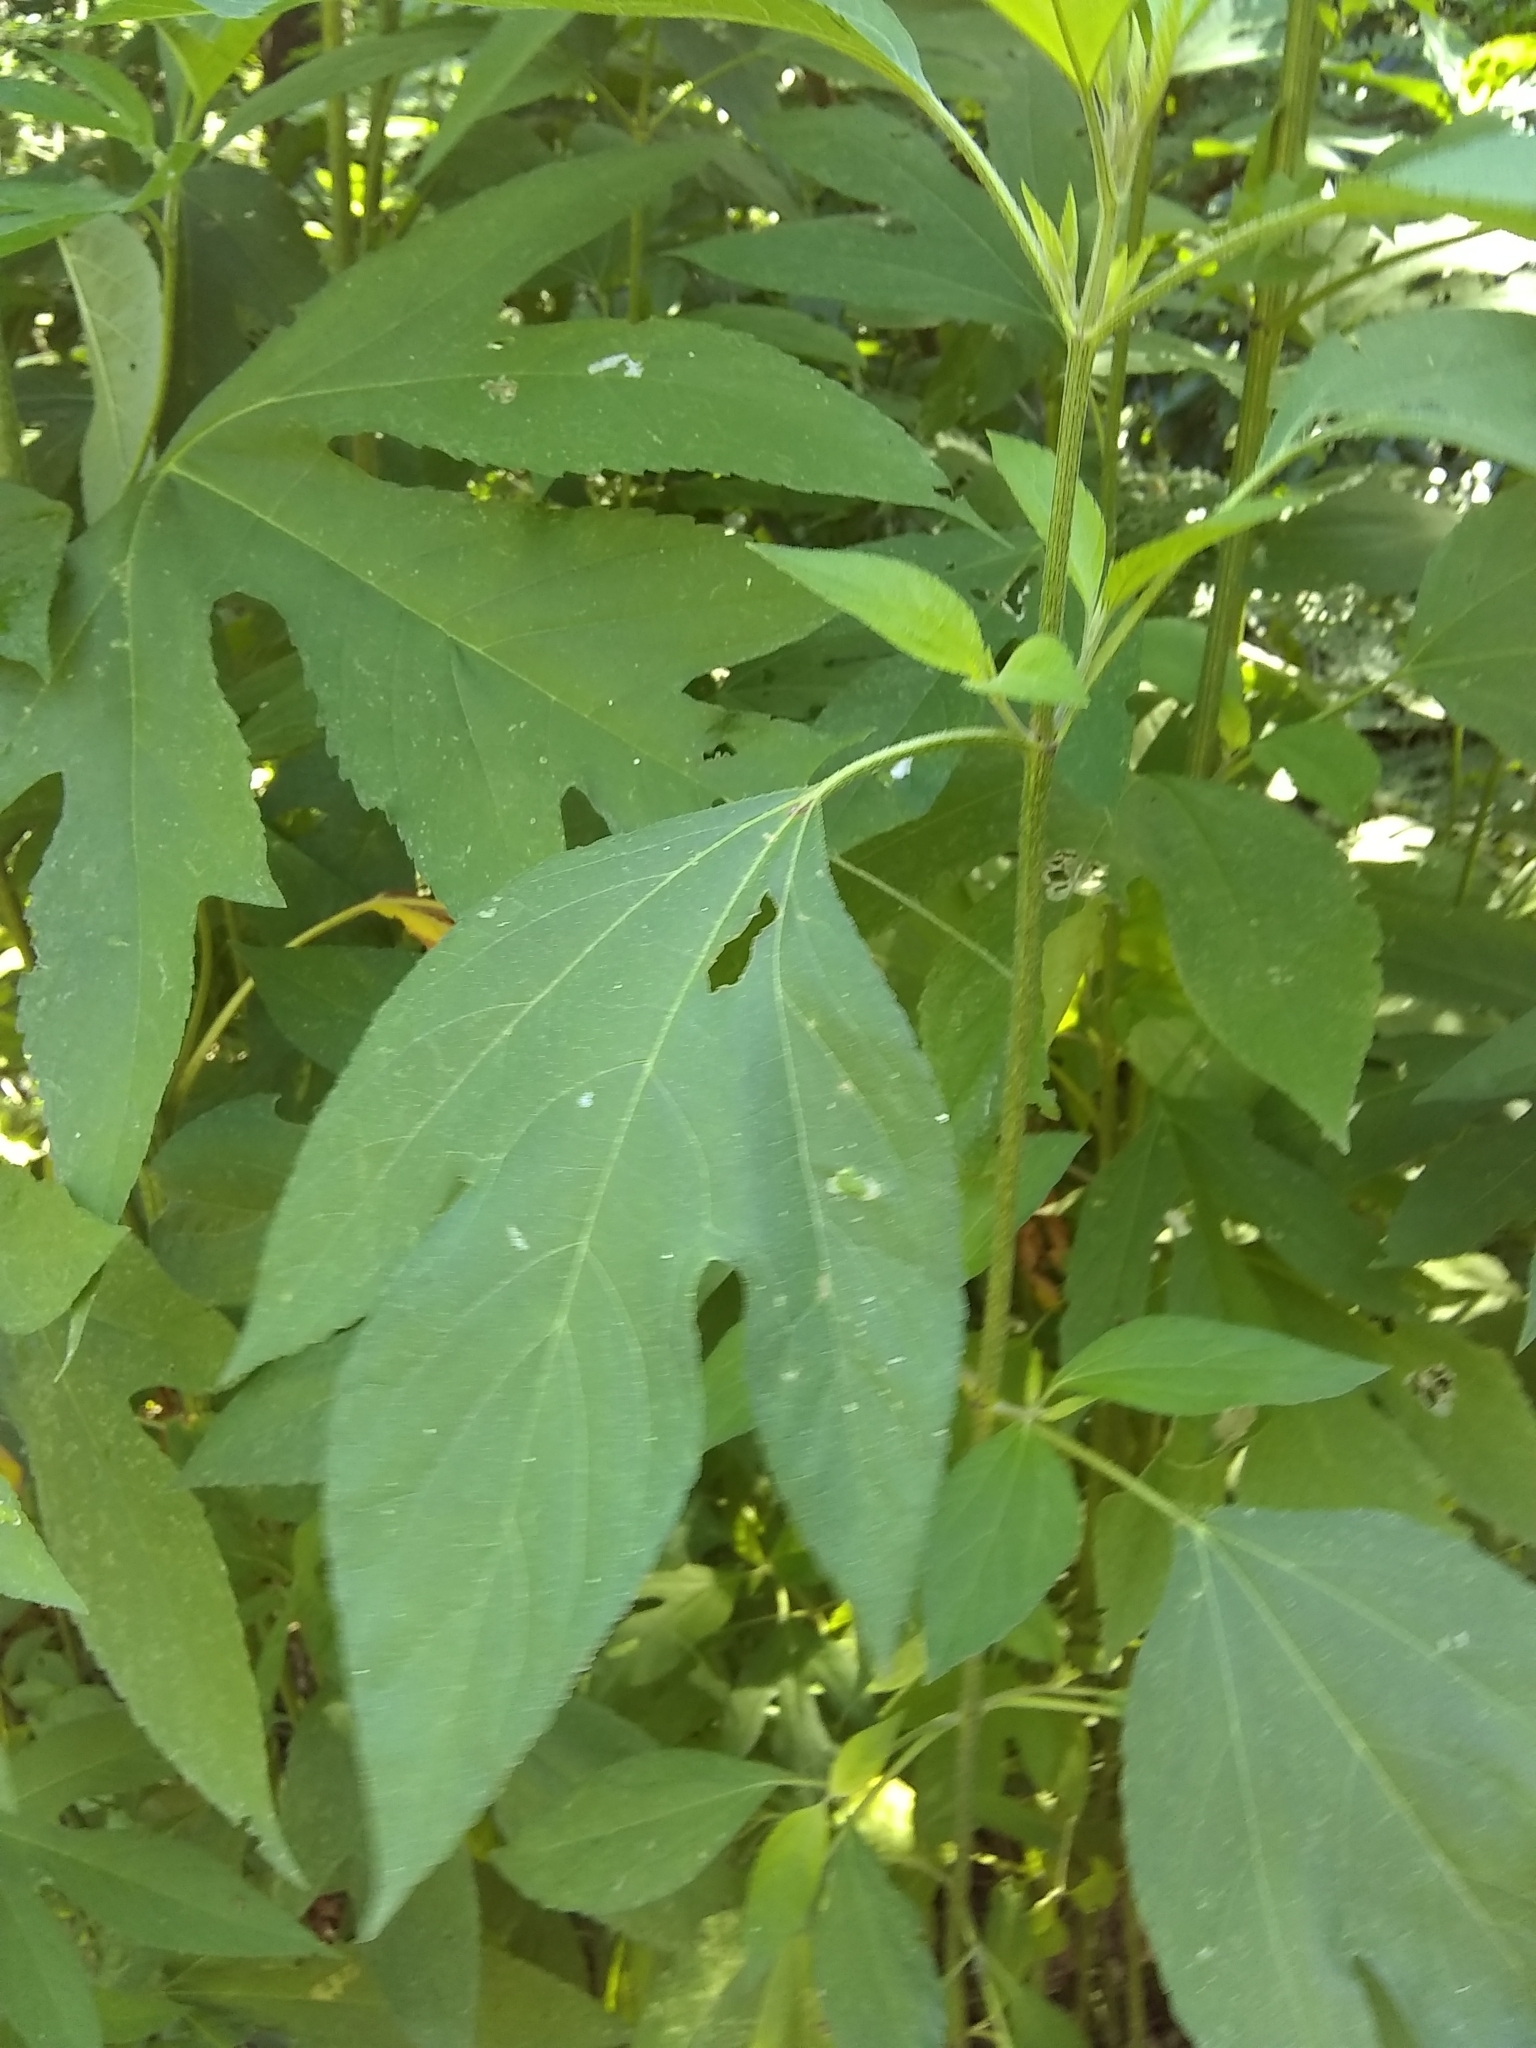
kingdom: Plantae
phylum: Tracheophyta
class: Magnoliopsida
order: Asterales
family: Asteraceae
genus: Ambrosia
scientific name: Ambrosia trifida
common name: Giant ragweed
